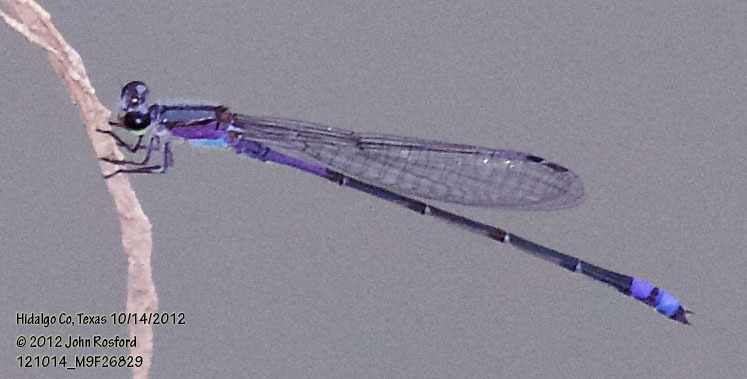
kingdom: Animalia
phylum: Arthropoda
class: Insecta
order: Odonata
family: Coenagrionidae
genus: Enallagma
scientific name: Enallagma novaehispaniae
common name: Neotropical bluet
